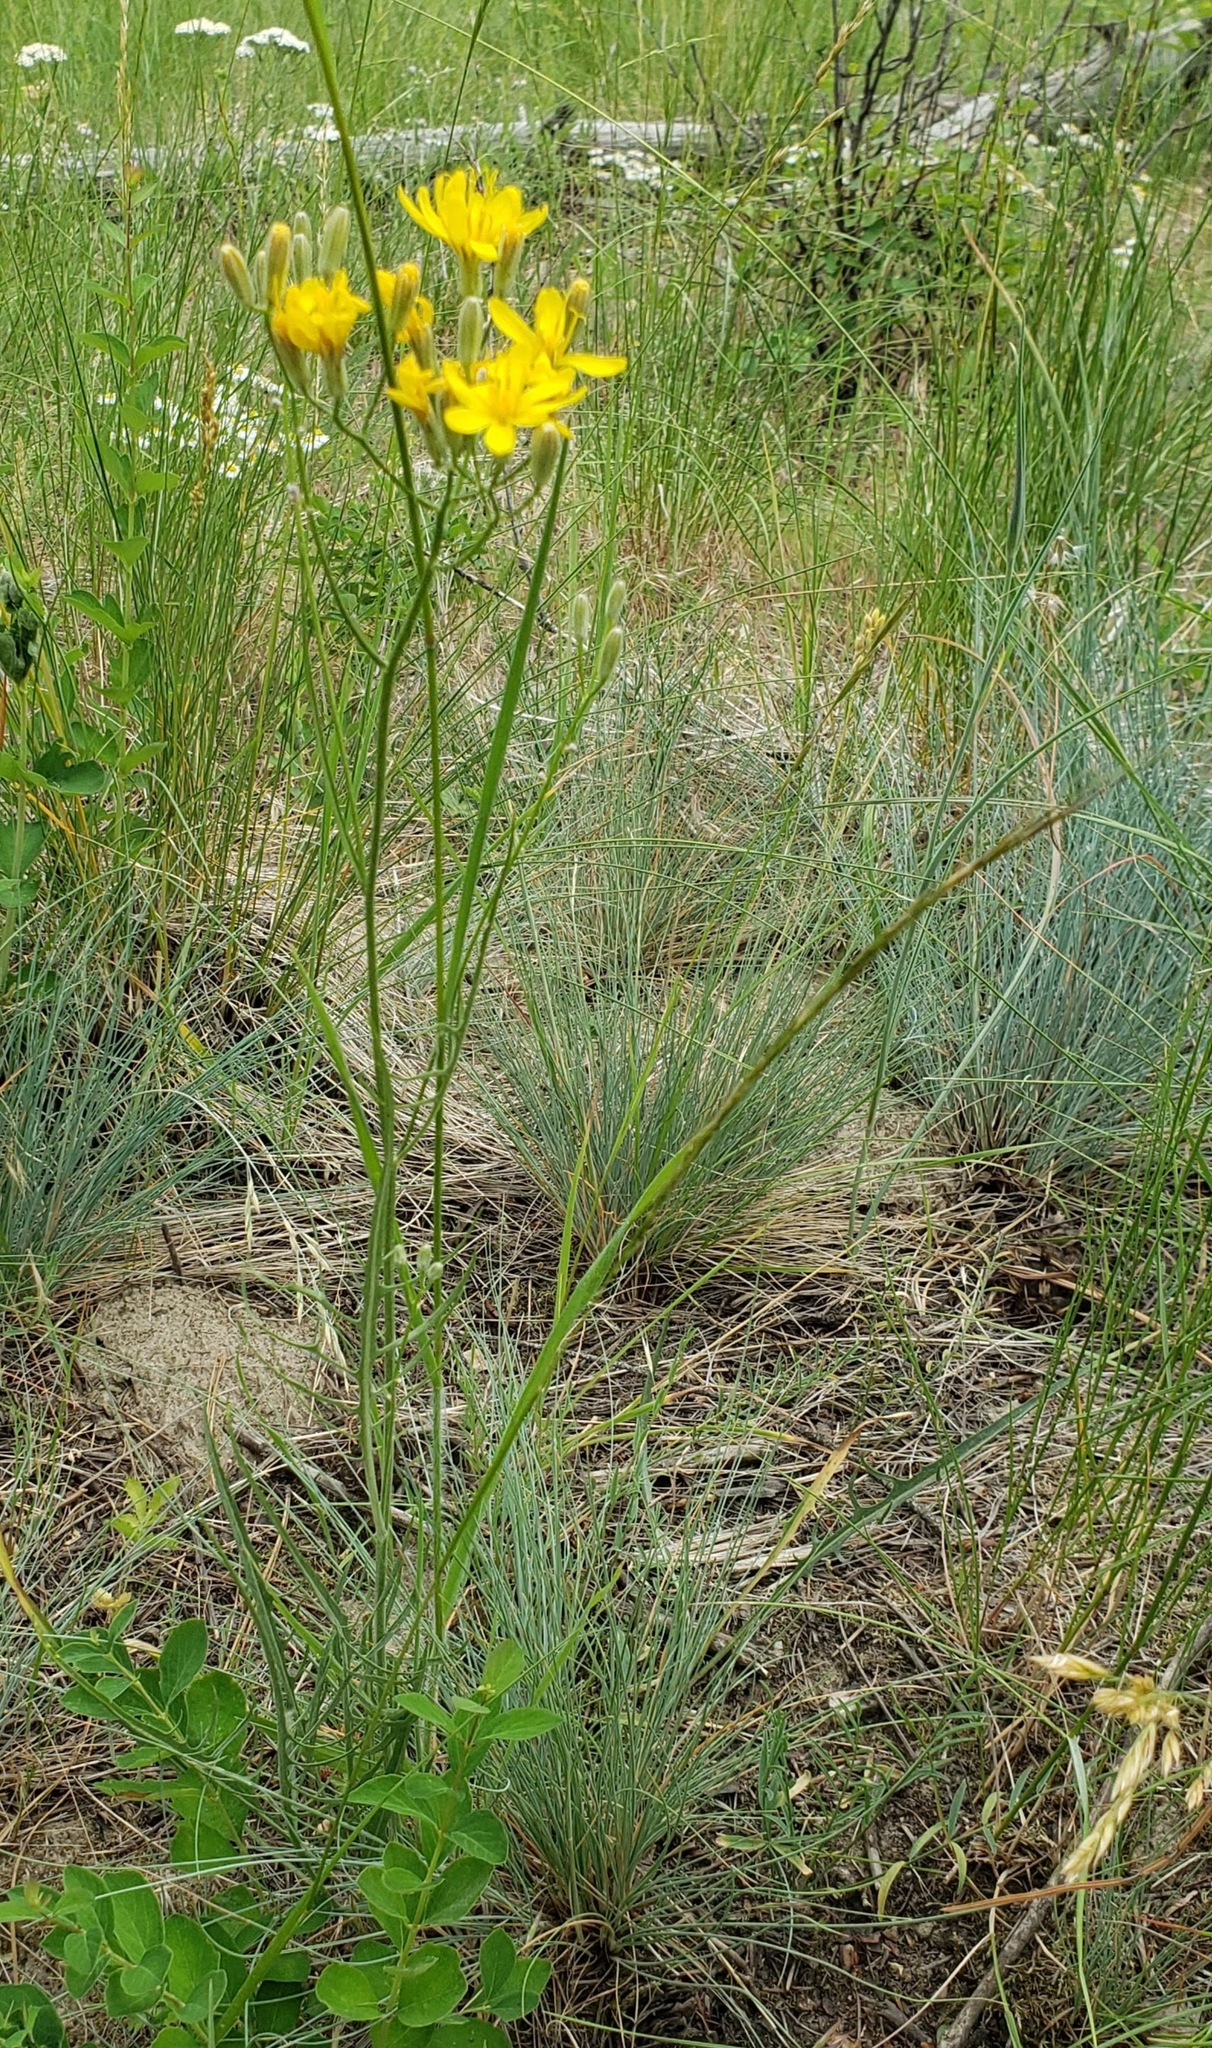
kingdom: Plantae
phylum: Tracheophyta
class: Magnoliopsida
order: Asterales
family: Asteraceae
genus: Crepis
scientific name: Crepis atribarba
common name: Dark hawk's-beard
